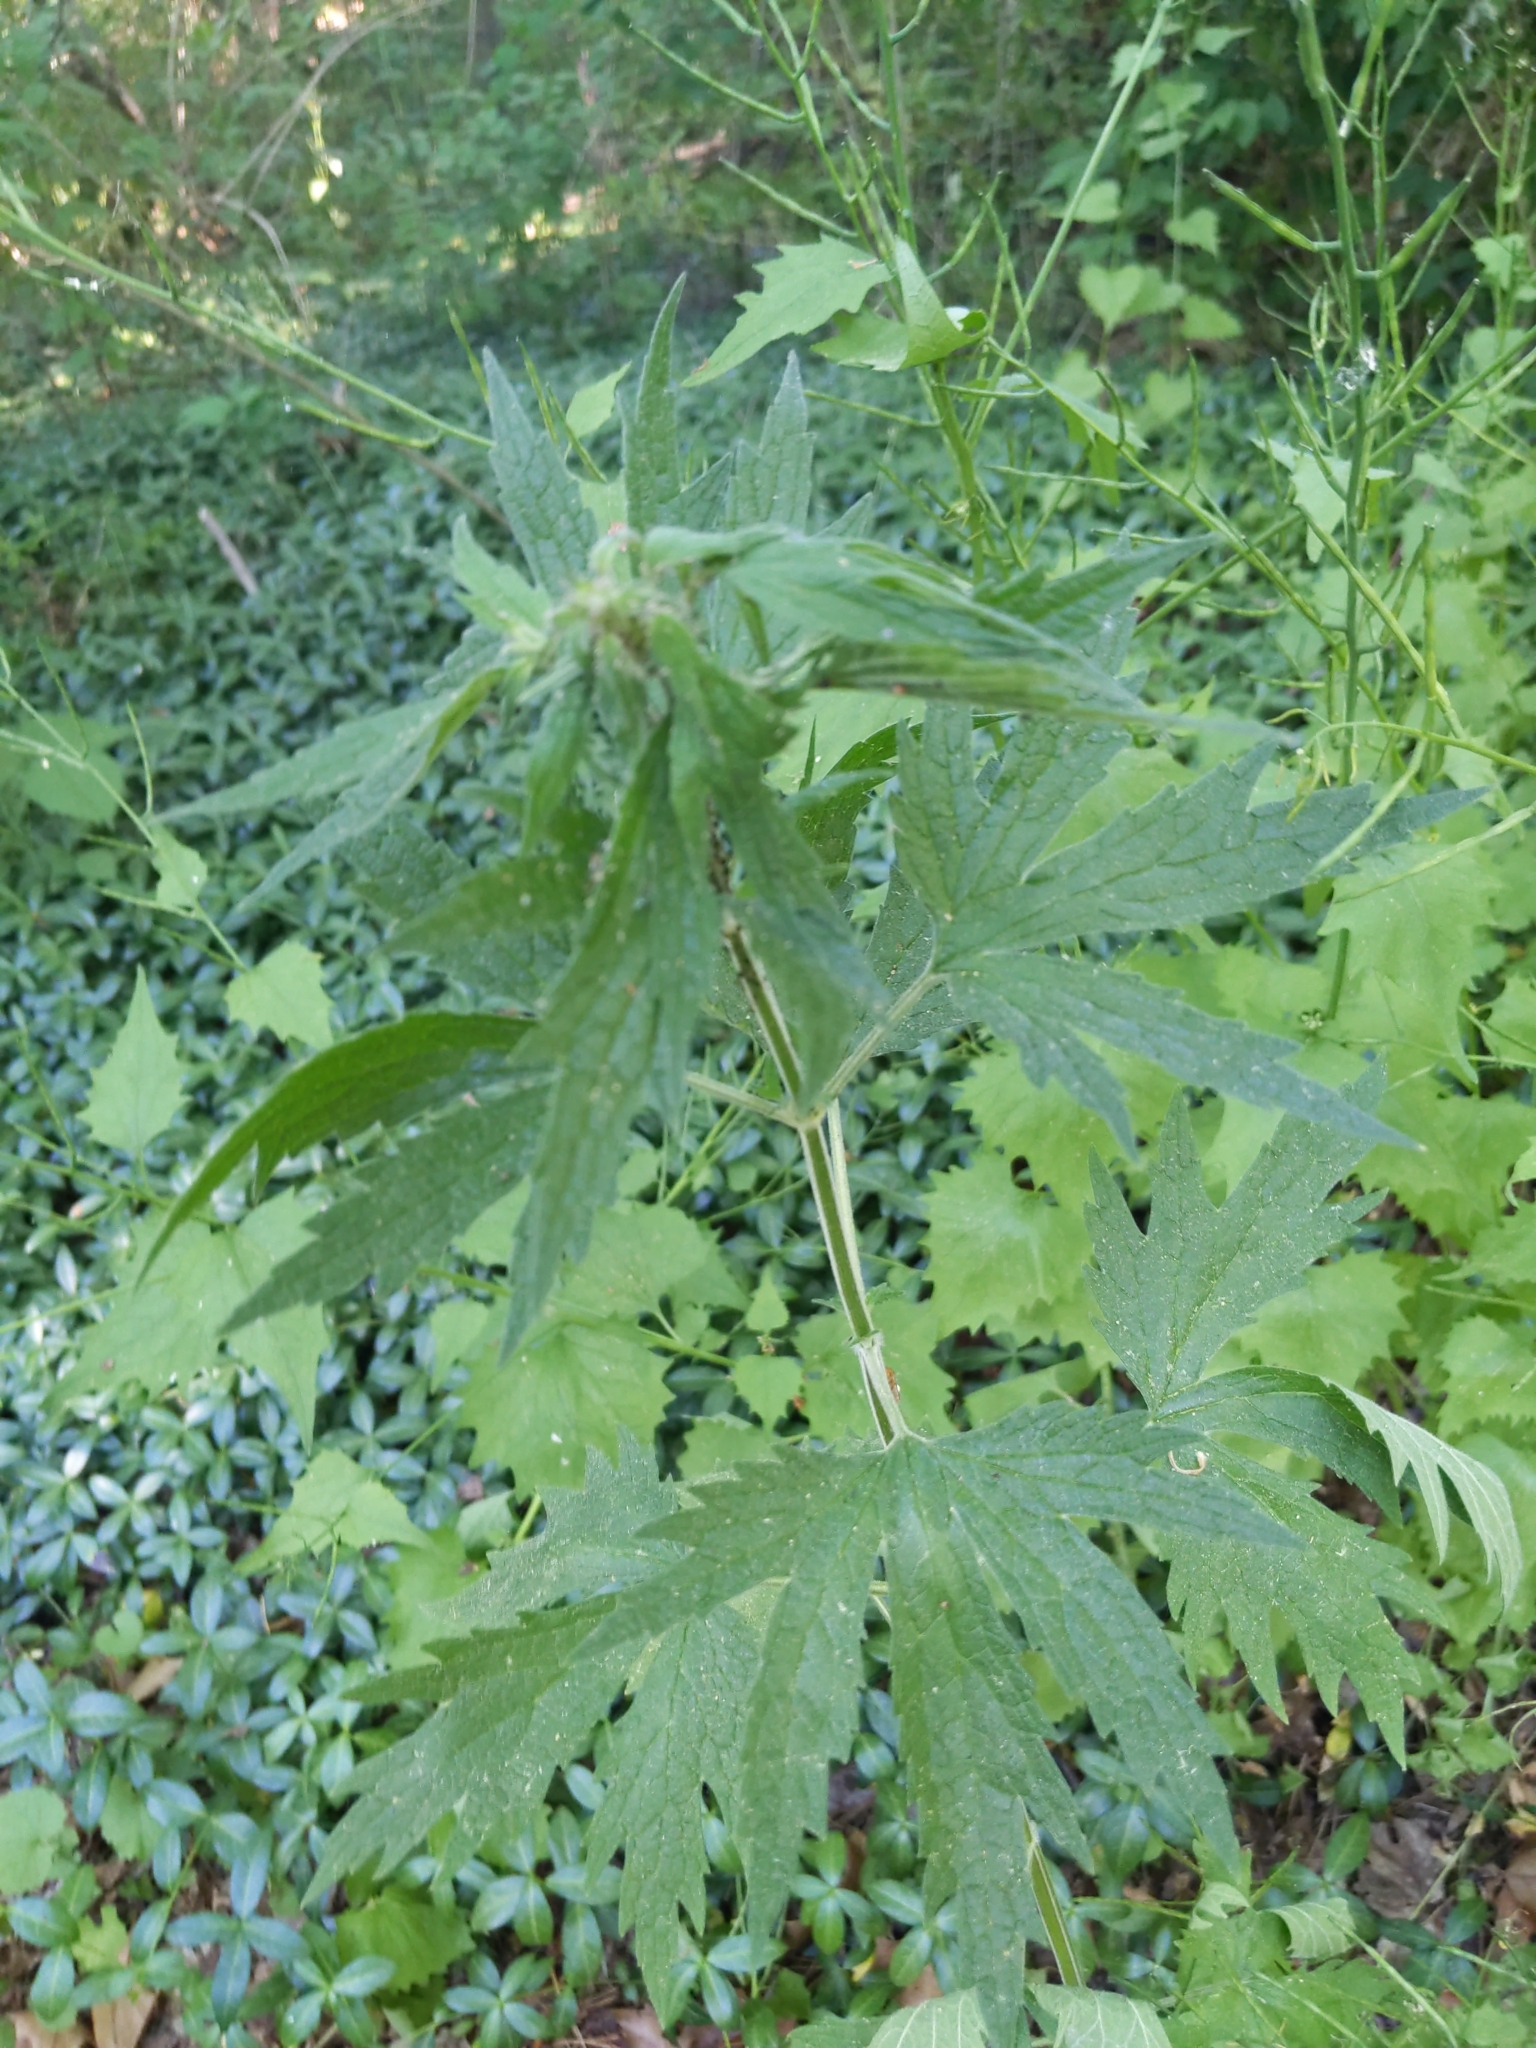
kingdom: Plantae
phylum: Tracheophyta
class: Magnoliopsida
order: Lamiales
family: Lamiaceae
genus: Leonurus
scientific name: Leonurus cardiaca
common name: Motherwort
